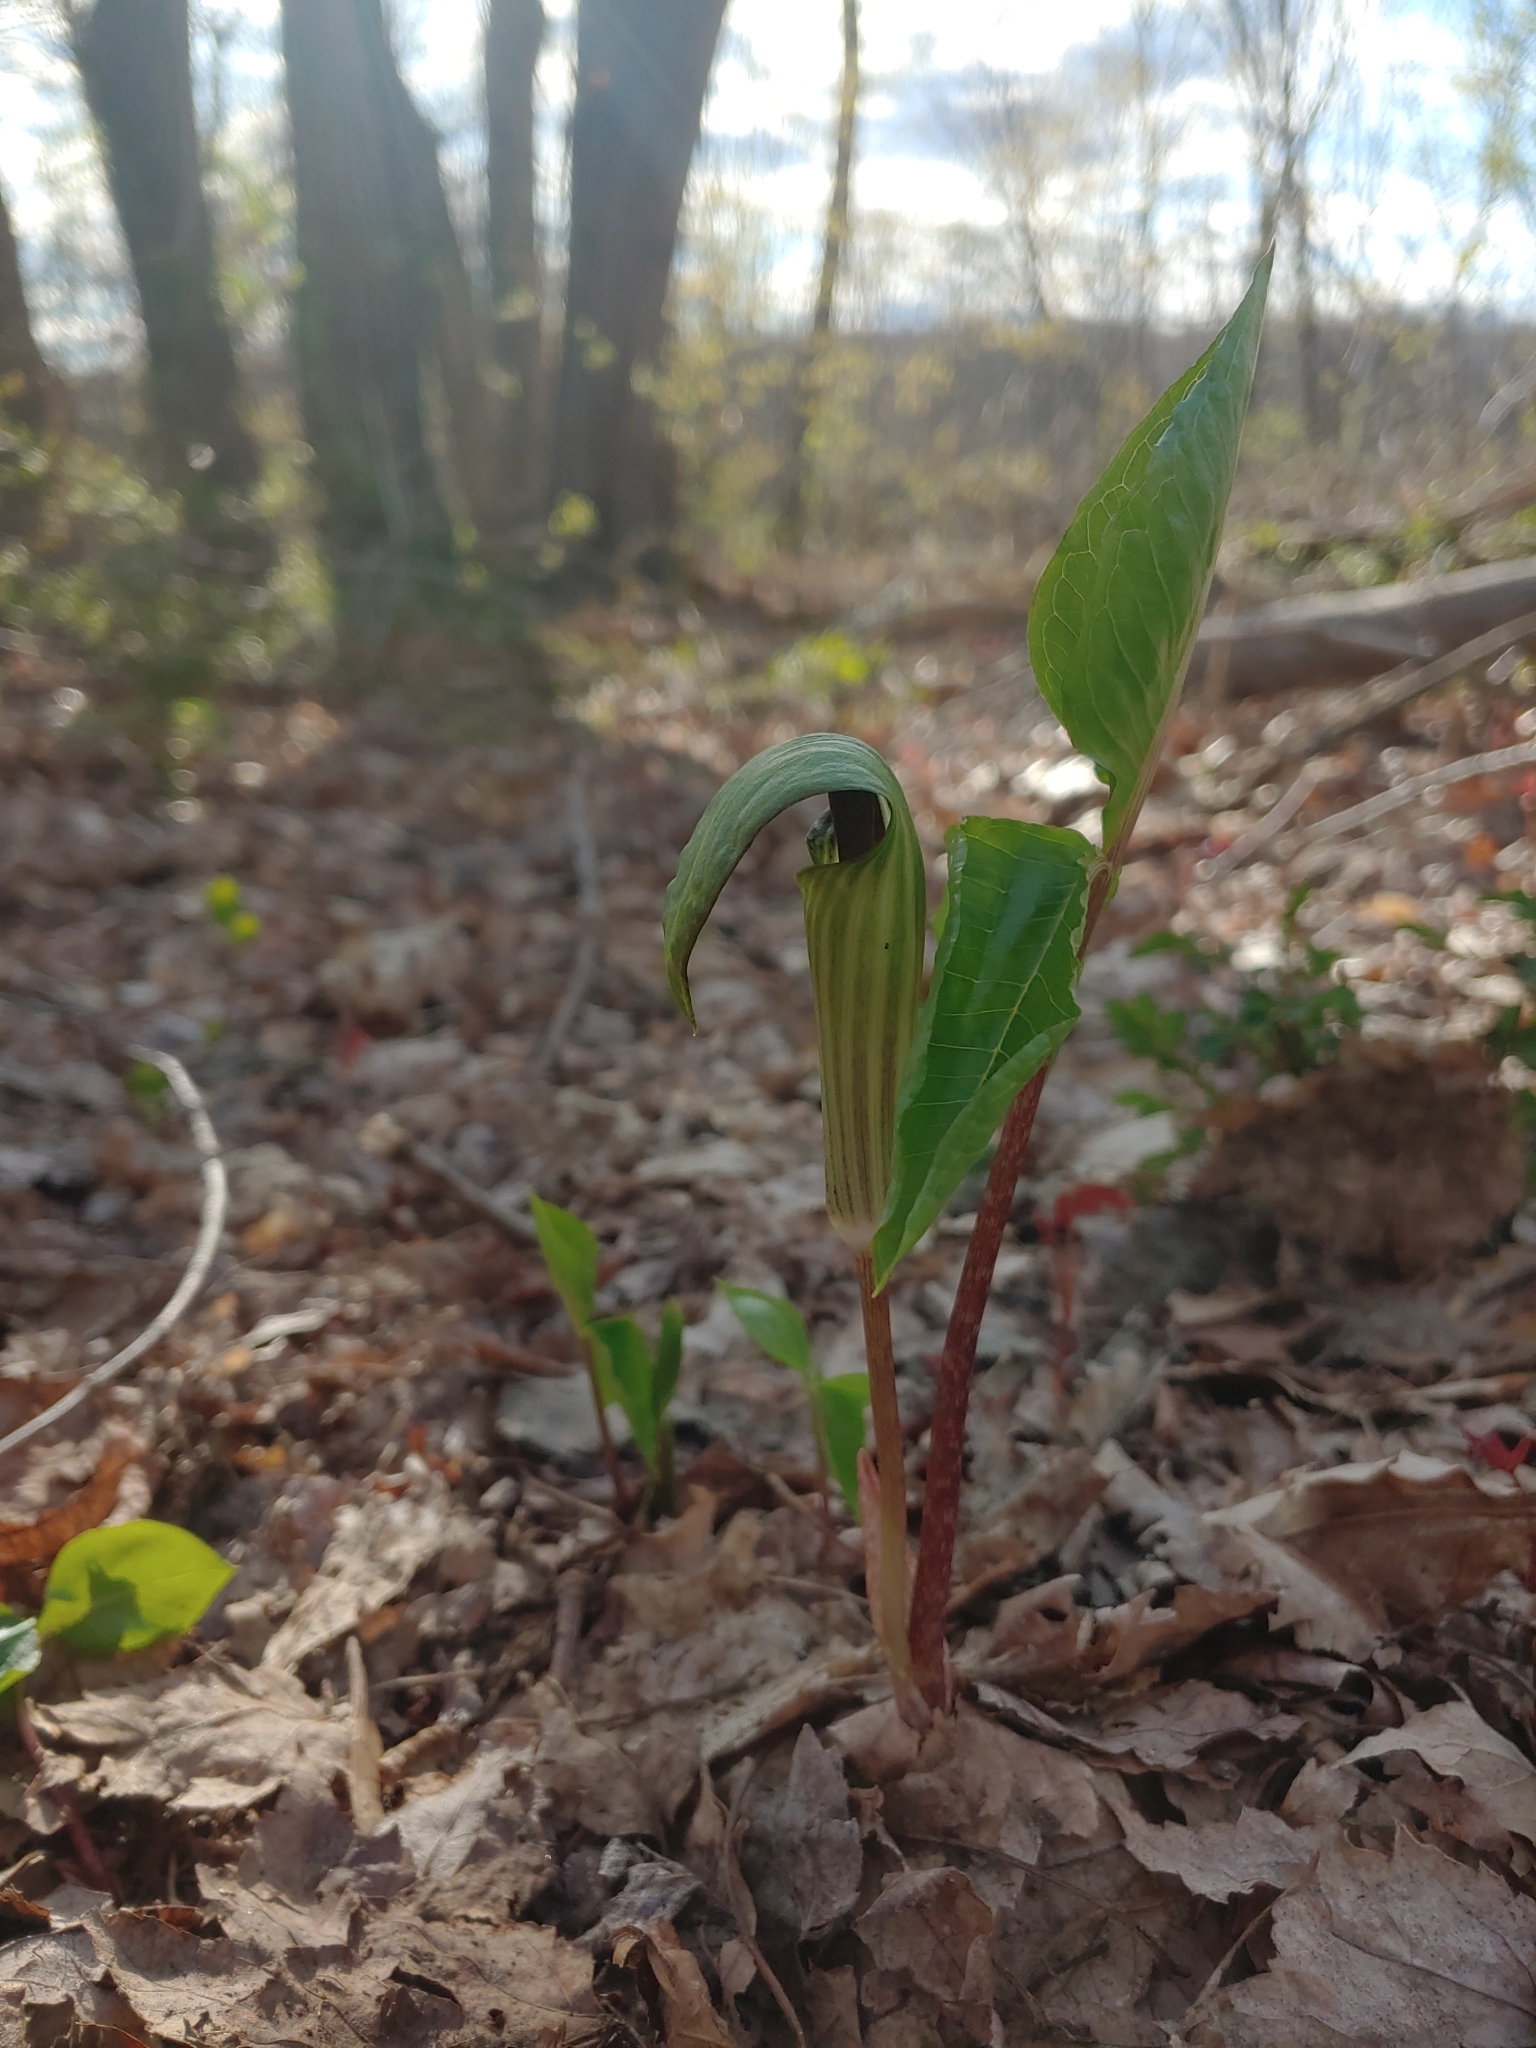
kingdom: Plantae
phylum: Tracheophyta
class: Liliopsida
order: Alismatales
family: Araceae
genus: Arisaema
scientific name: Arisaema triphyllum
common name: Jack-in-the-pulpit
